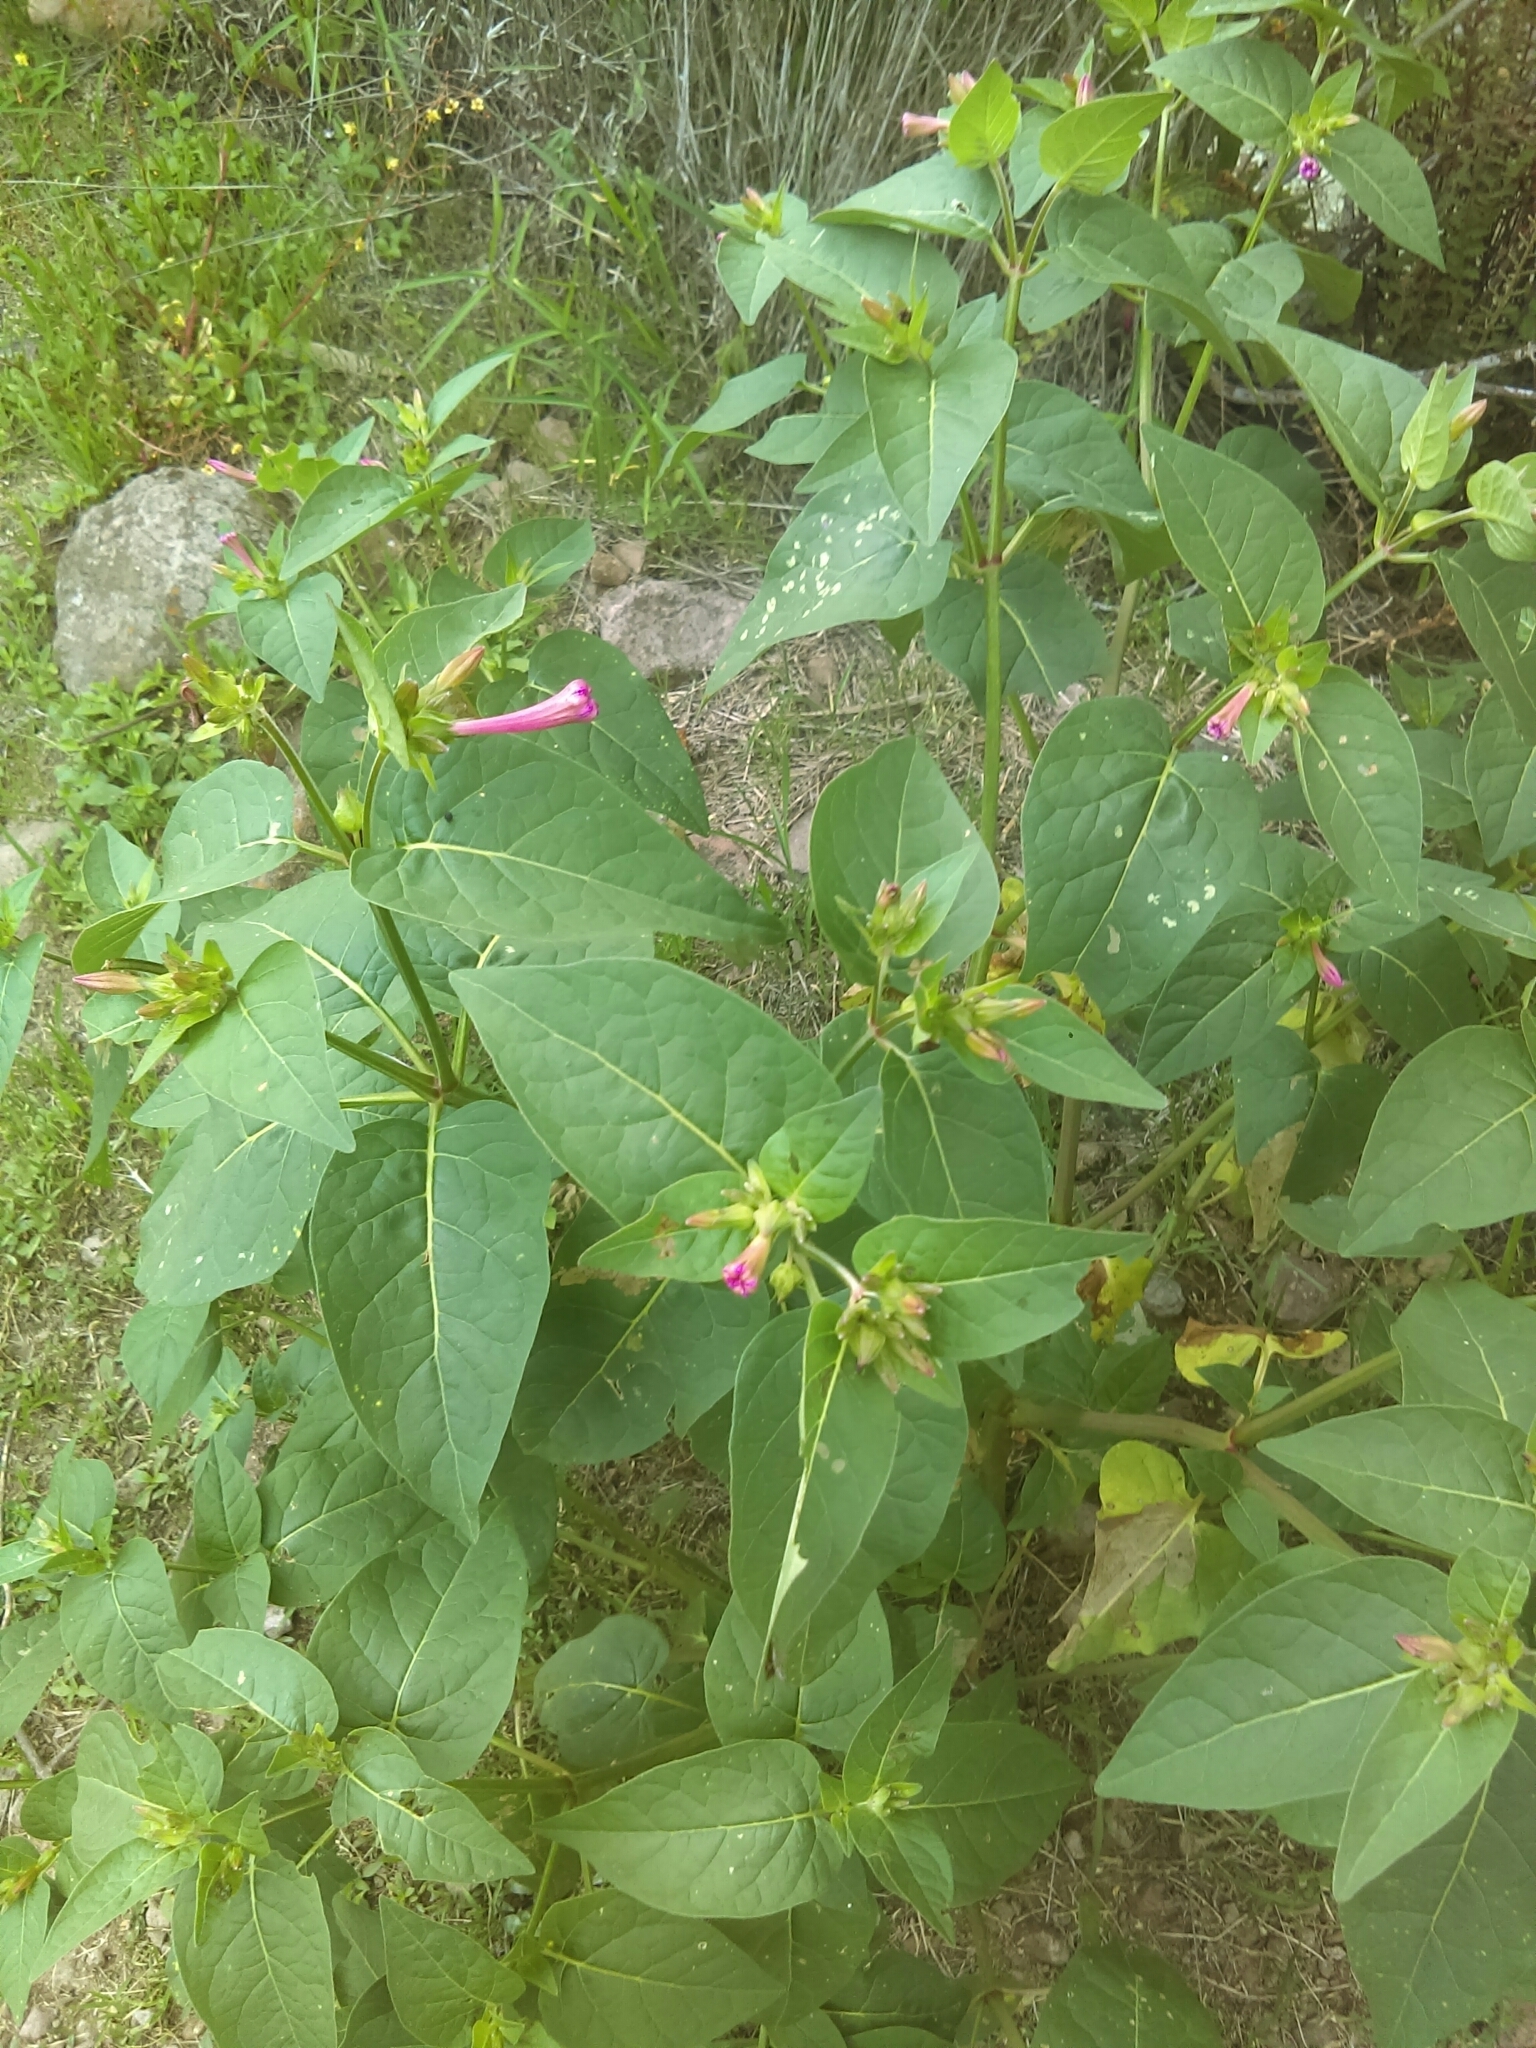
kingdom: Plantae
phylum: Tracheophyta
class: Magnoliopsida
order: Caryophyllales
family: Nyctaginaceae
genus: Mirabilis
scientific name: Mirabilis jalapa
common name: Marvel-of-peru
